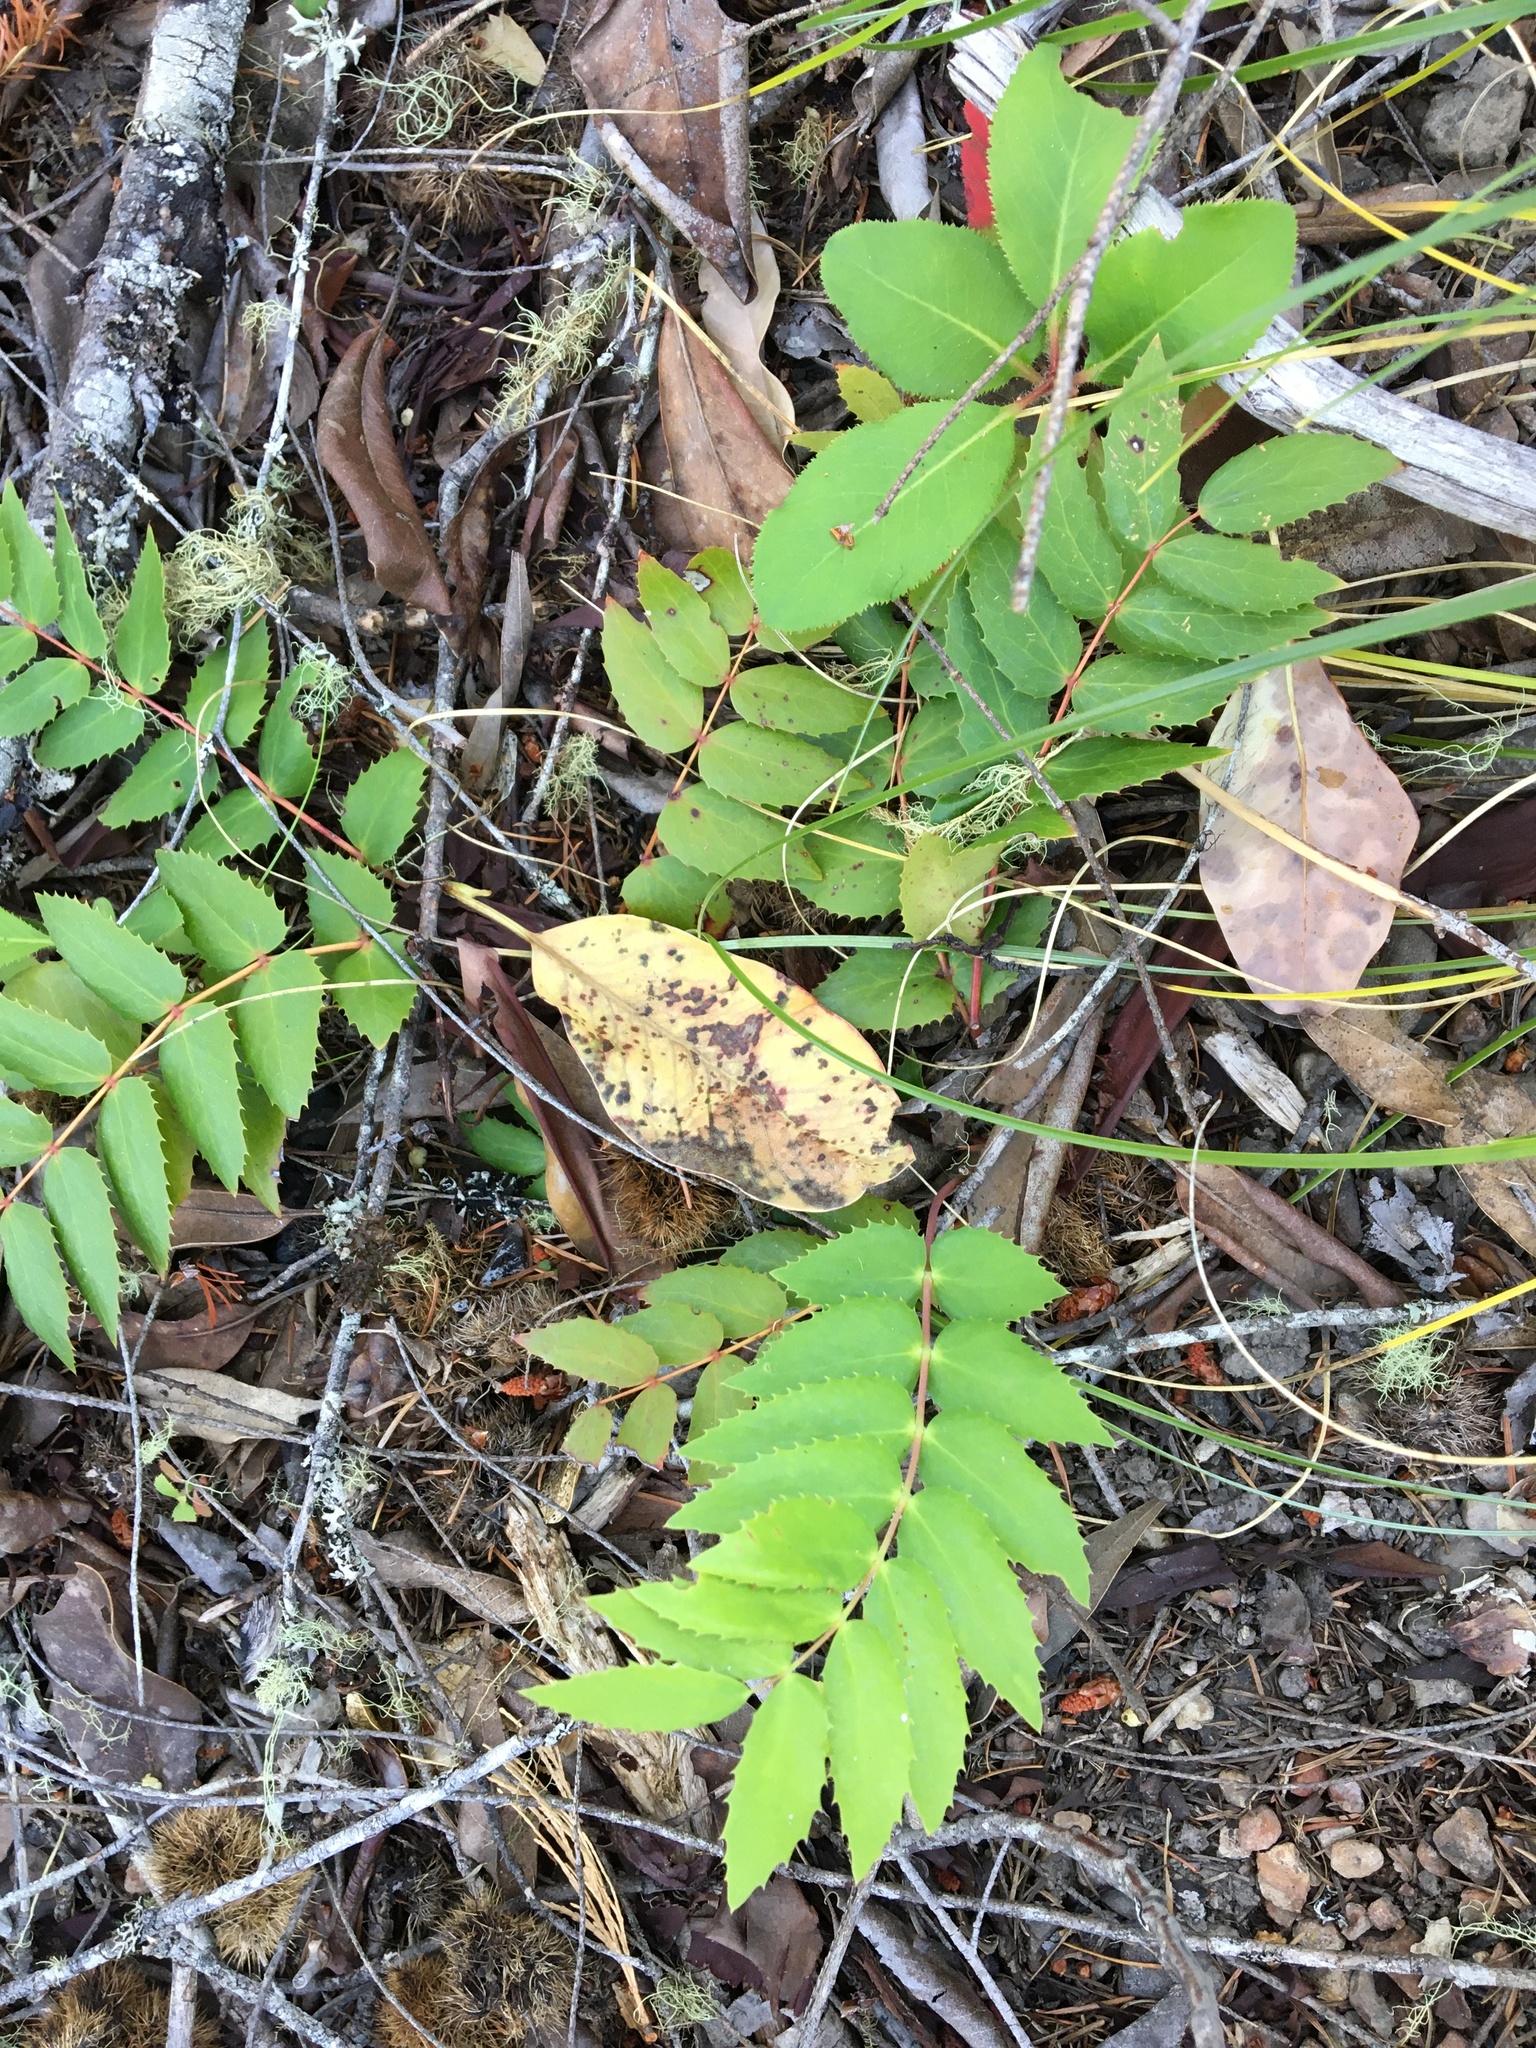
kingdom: Plantae
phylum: Tracheophyta
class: Magnoliopsida
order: Ranunculales
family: Berberidaceae
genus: Mahonia
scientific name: Mahonia nervosa
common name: Cascade oregon-grape
